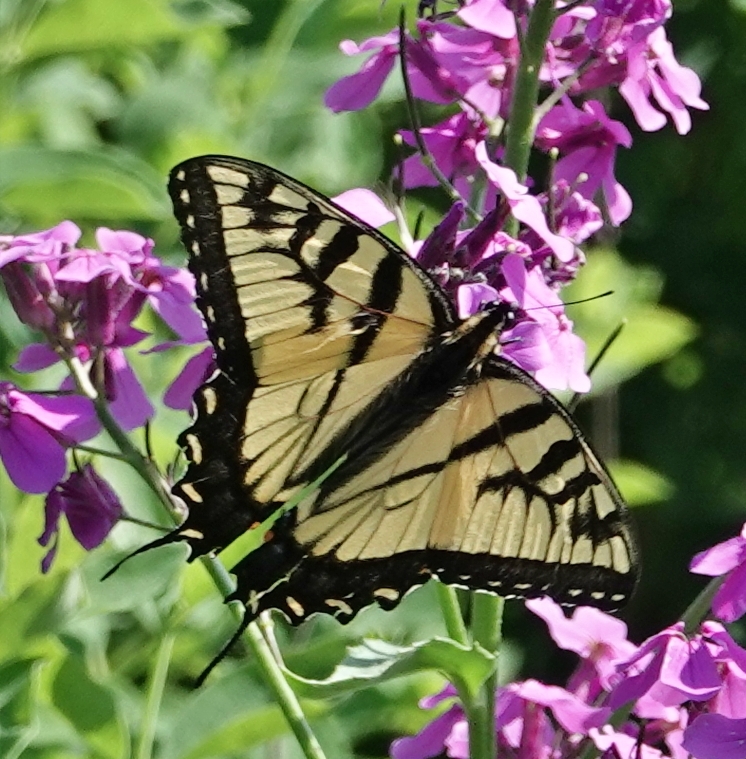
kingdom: Animalia
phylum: Arthropoda
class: Insecta
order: Lepidoptera
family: Papilionidae
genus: Papilio
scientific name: Papilio glaucus
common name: Tiger swallowtail
